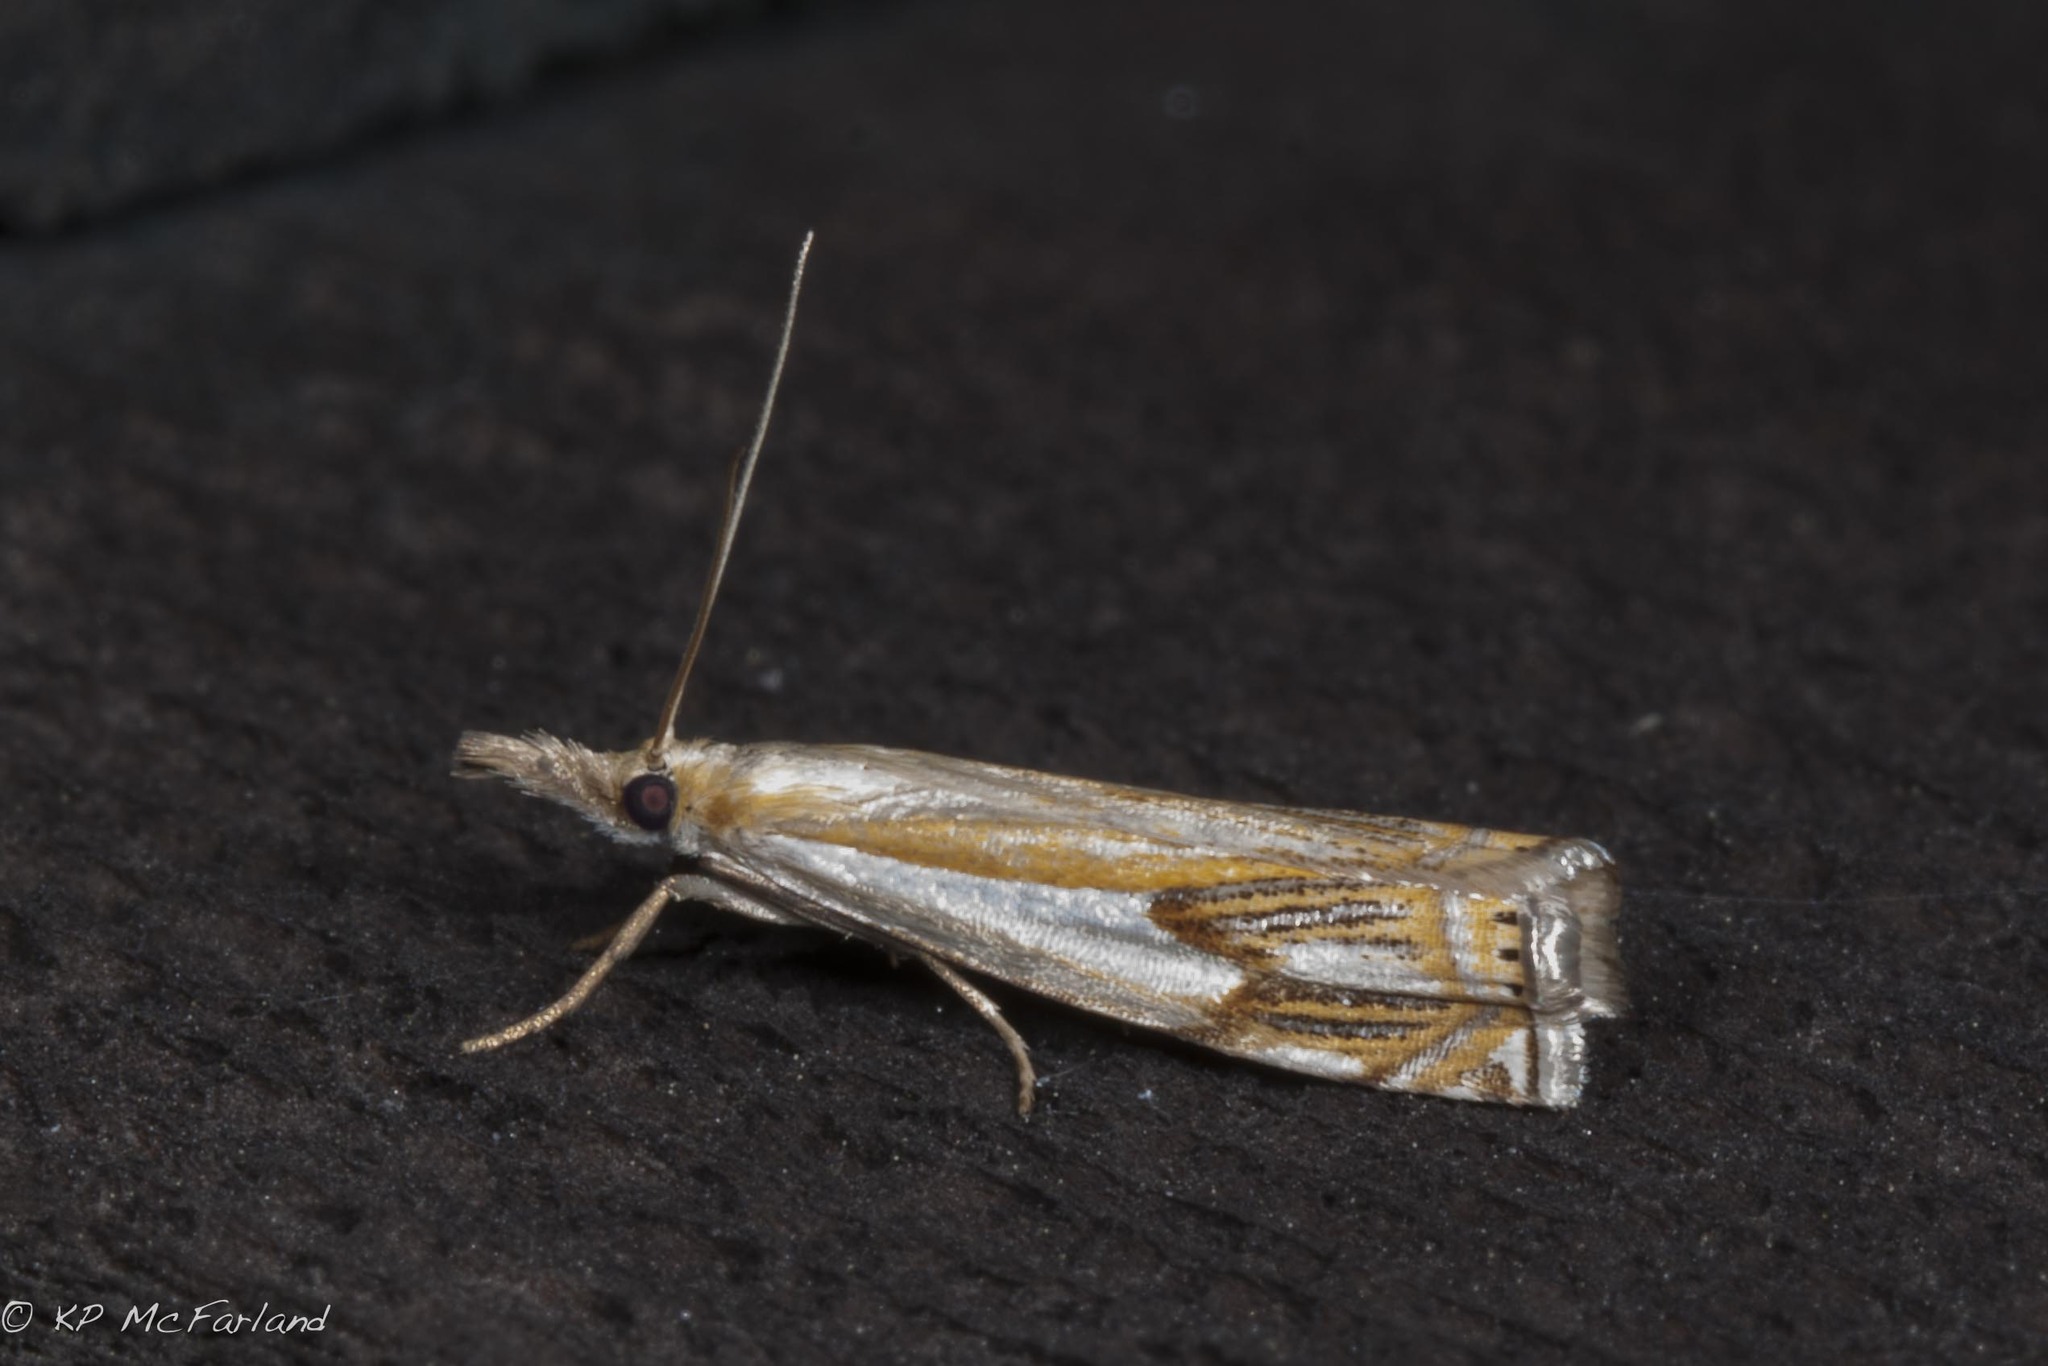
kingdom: Animalia
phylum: Arthropoda
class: Insecta
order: Lepidoptera
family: Crambidae
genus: Crambus
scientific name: Crambus agitatellus
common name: Double-banded grass-veneer
